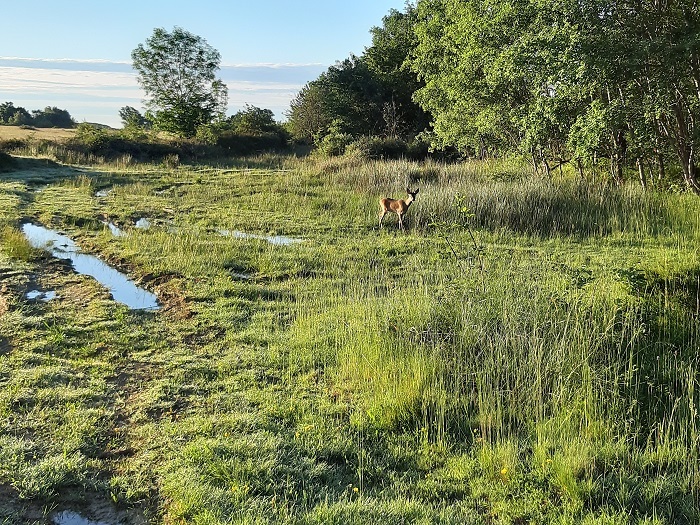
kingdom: Animalia
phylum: Chordata
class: Mammalia
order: Artiodactyla
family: Cervidae
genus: Capreolus
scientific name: Capreolus capreolus
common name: Western roe deer
